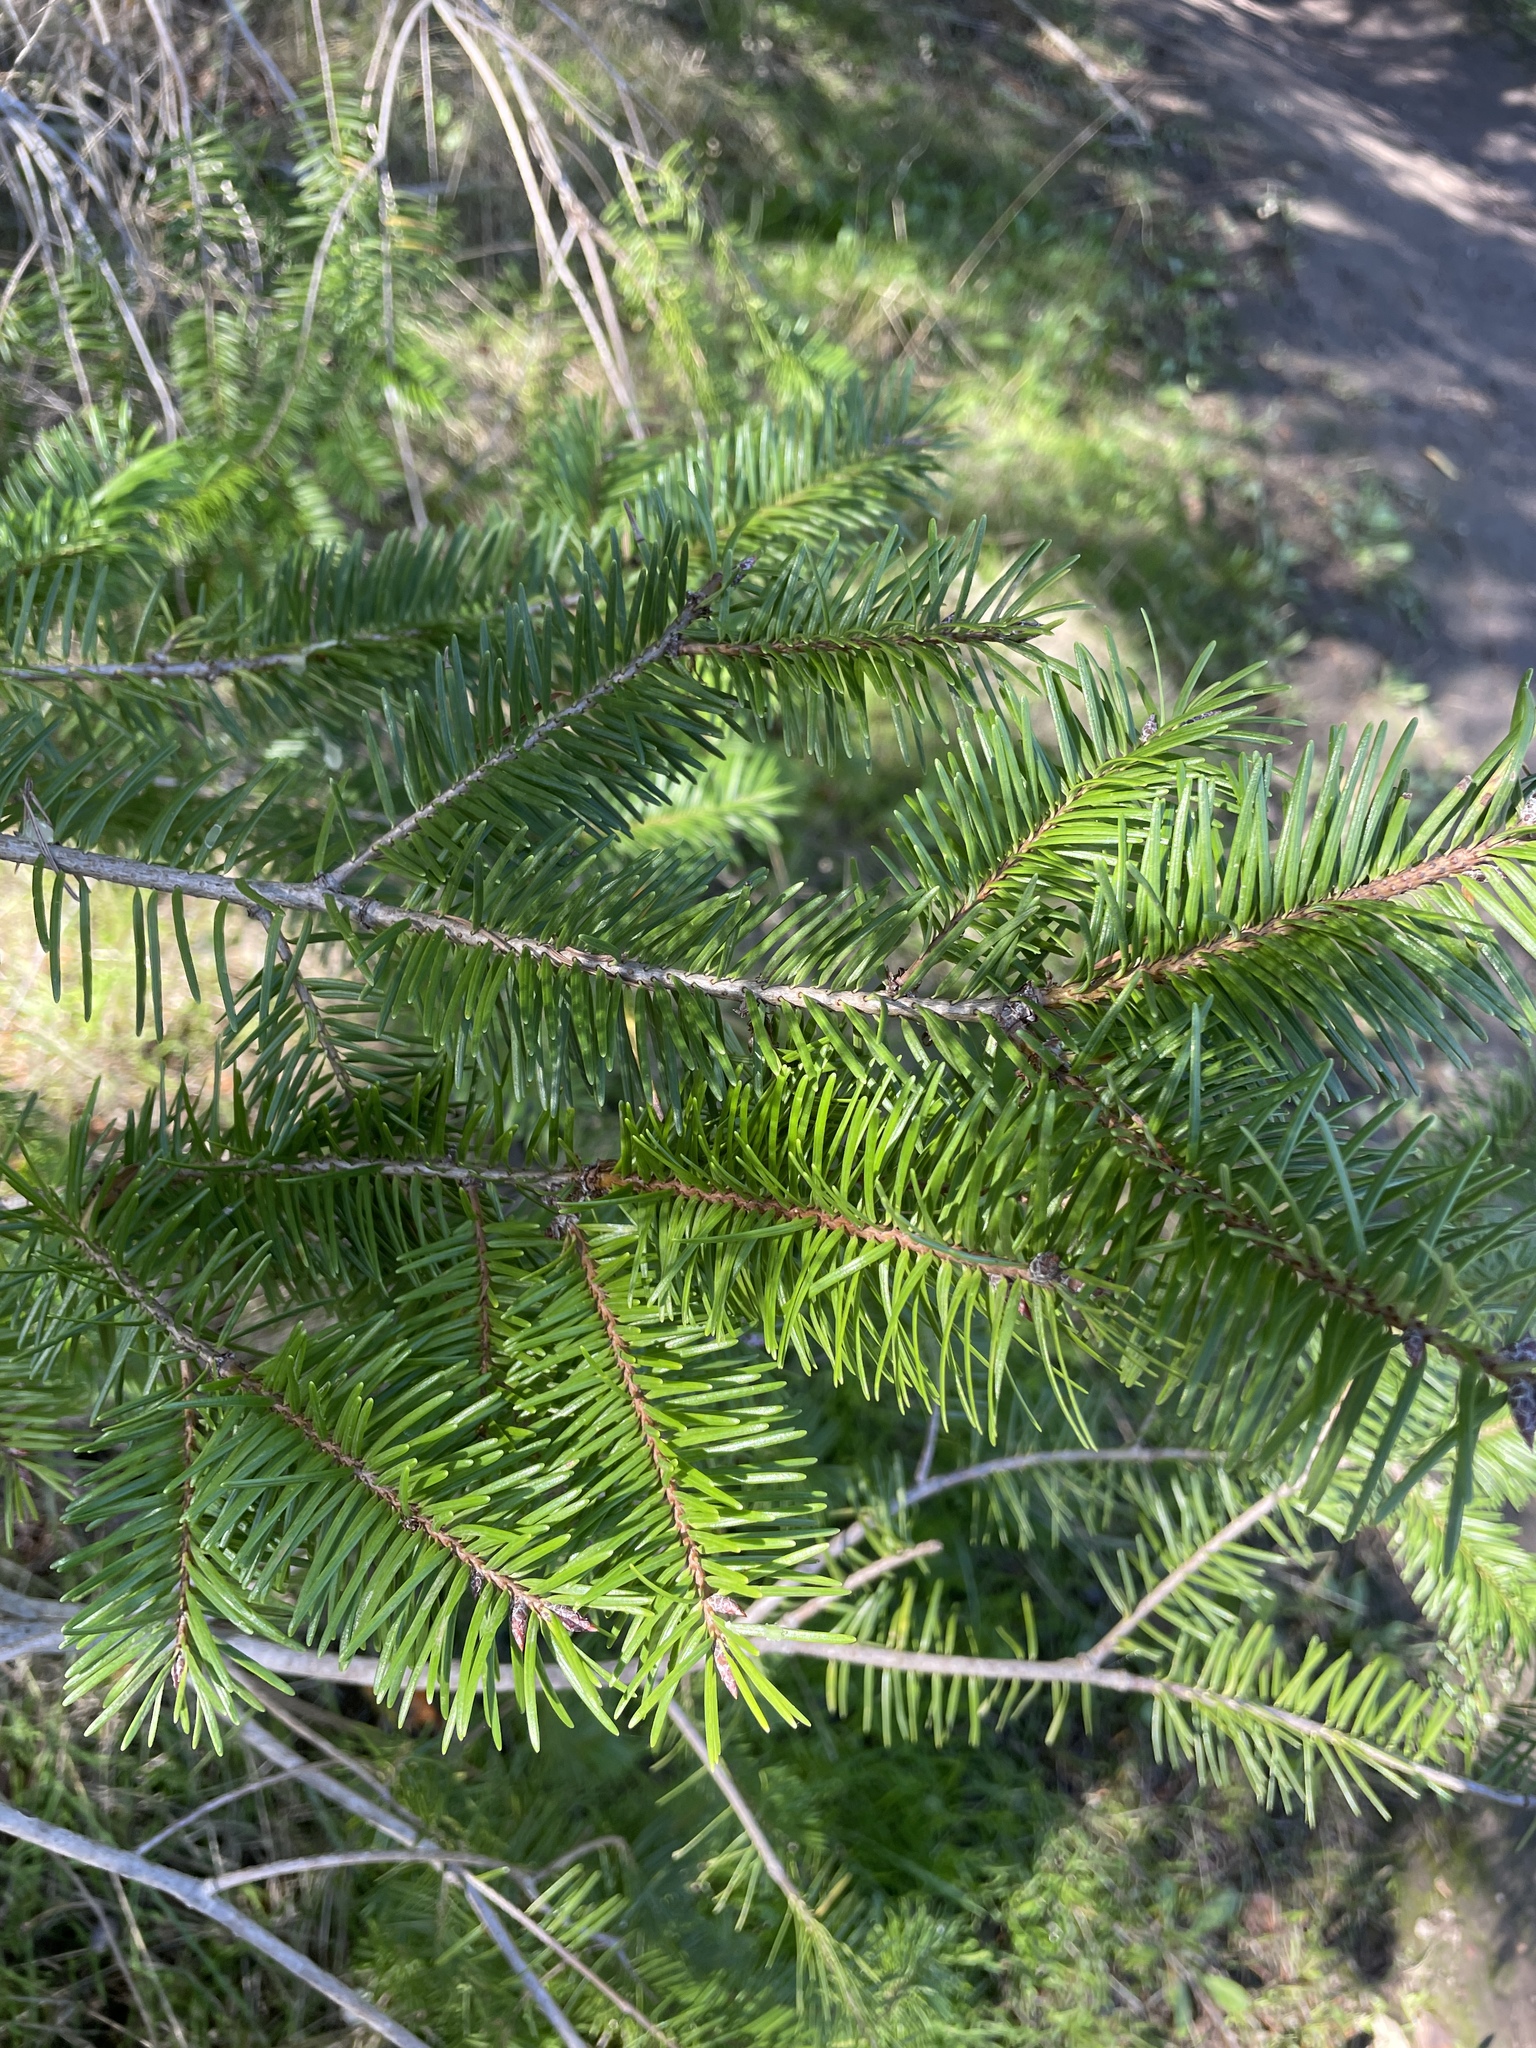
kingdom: Plantae
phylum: Tracheophyta
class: Pinopsida
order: Pinales
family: Pinaceae
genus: Pseudotsuga
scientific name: Pseudotsuga menziesii
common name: Douglas fir
